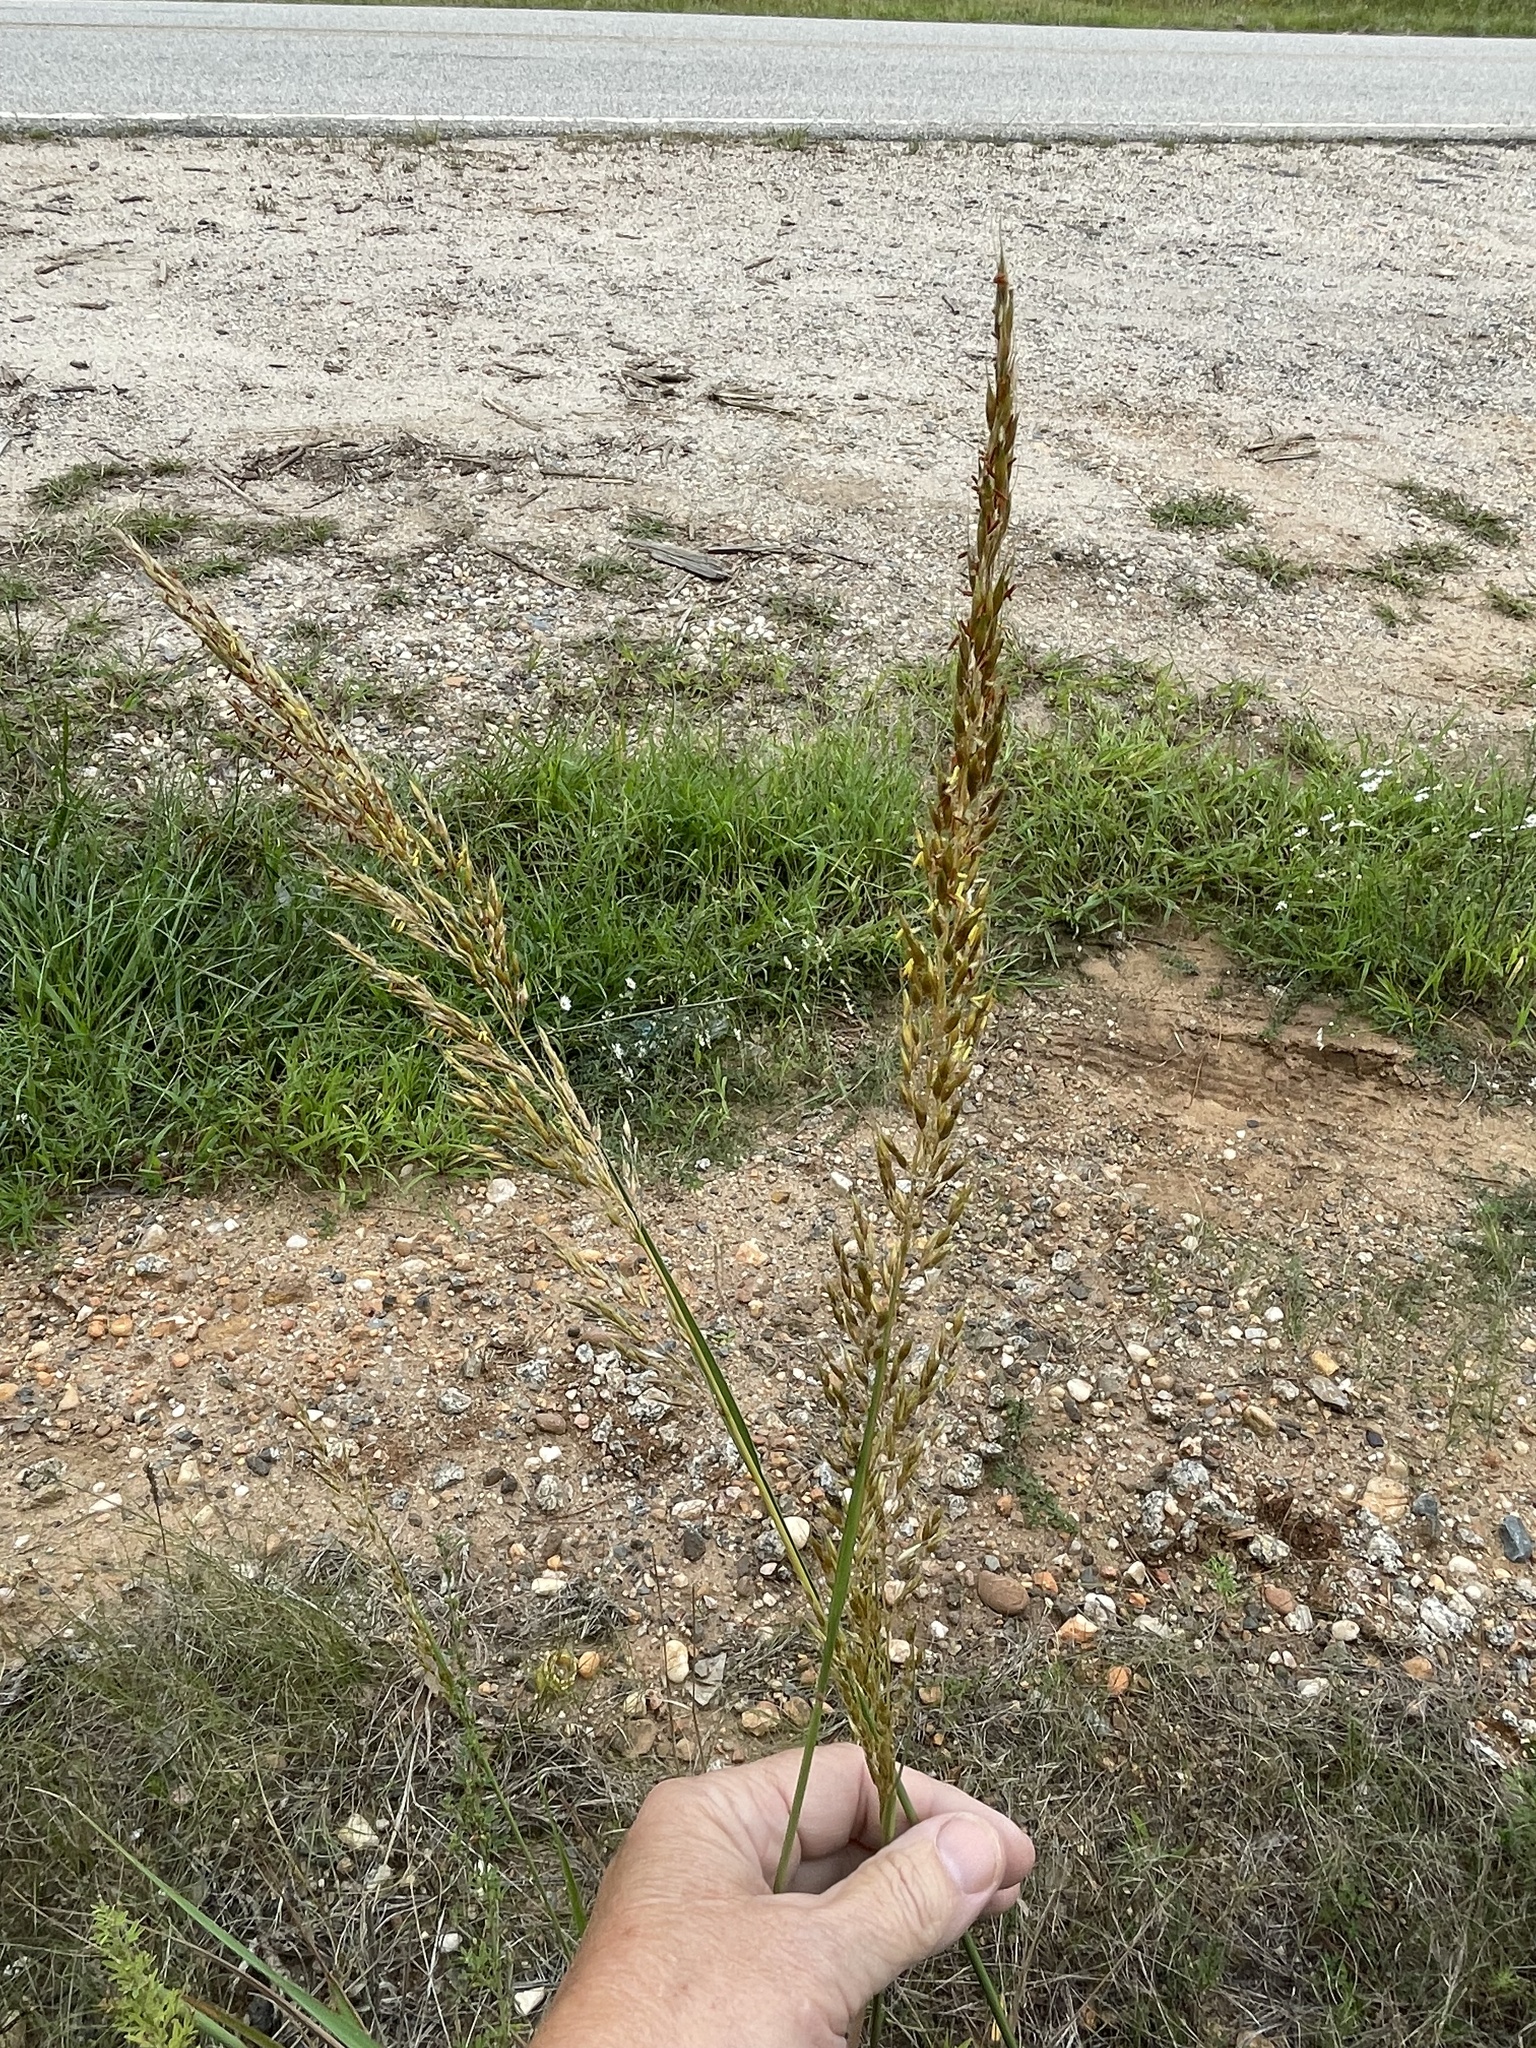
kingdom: Plantae
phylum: Tracheophyta
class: Liliopsida
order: Poales
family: Poaceae
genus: Sorghastrum
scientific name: Sorghastrum nutans
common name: Indian grass
